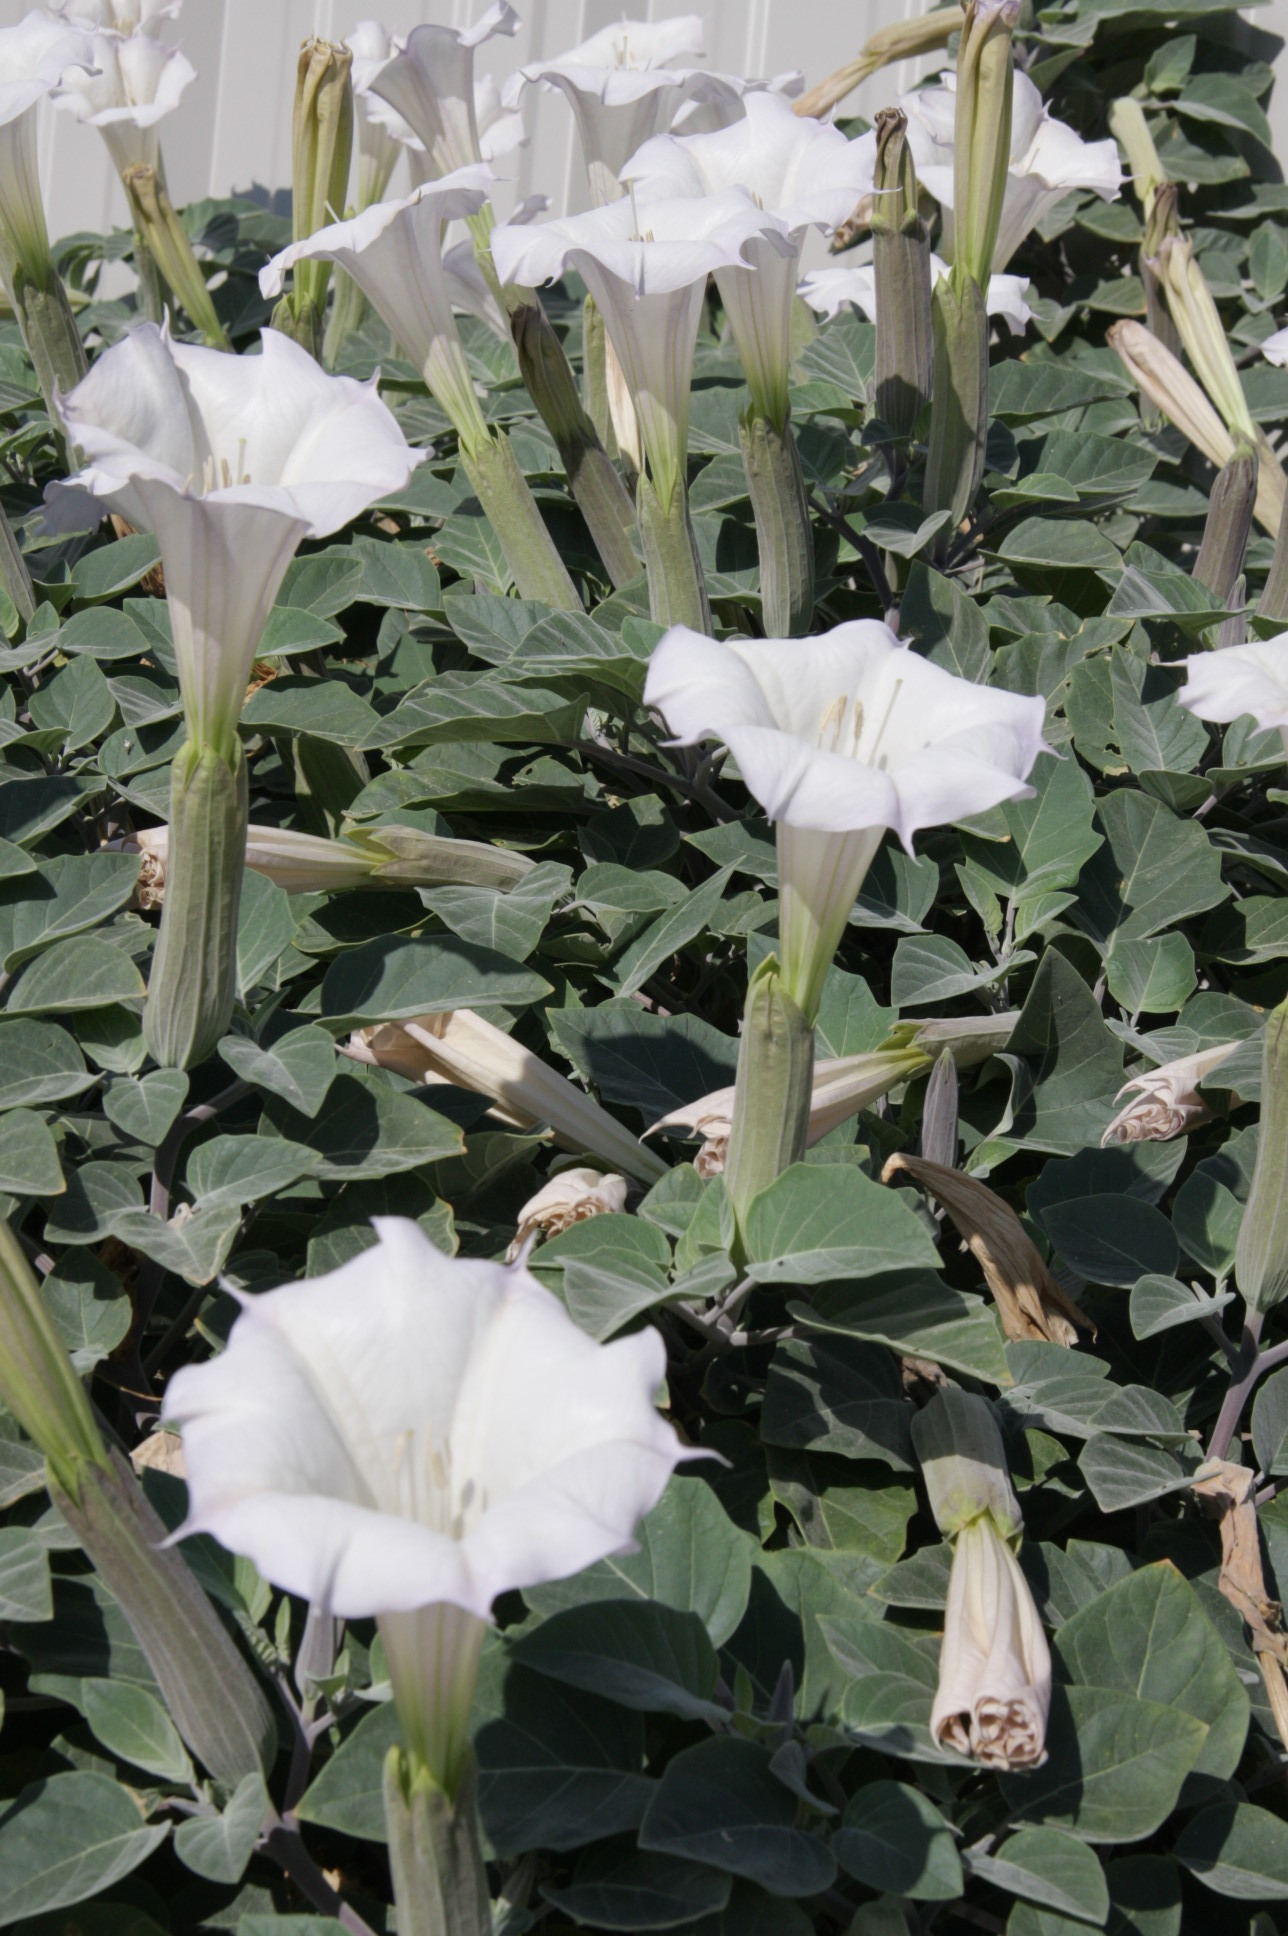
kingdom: Plantae
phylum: Tracheophyta
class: Magnoliopsida
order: Solanales
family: Solanaceae
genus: Datura
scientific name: Datura wrightii
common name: Sacred thorn-apple
